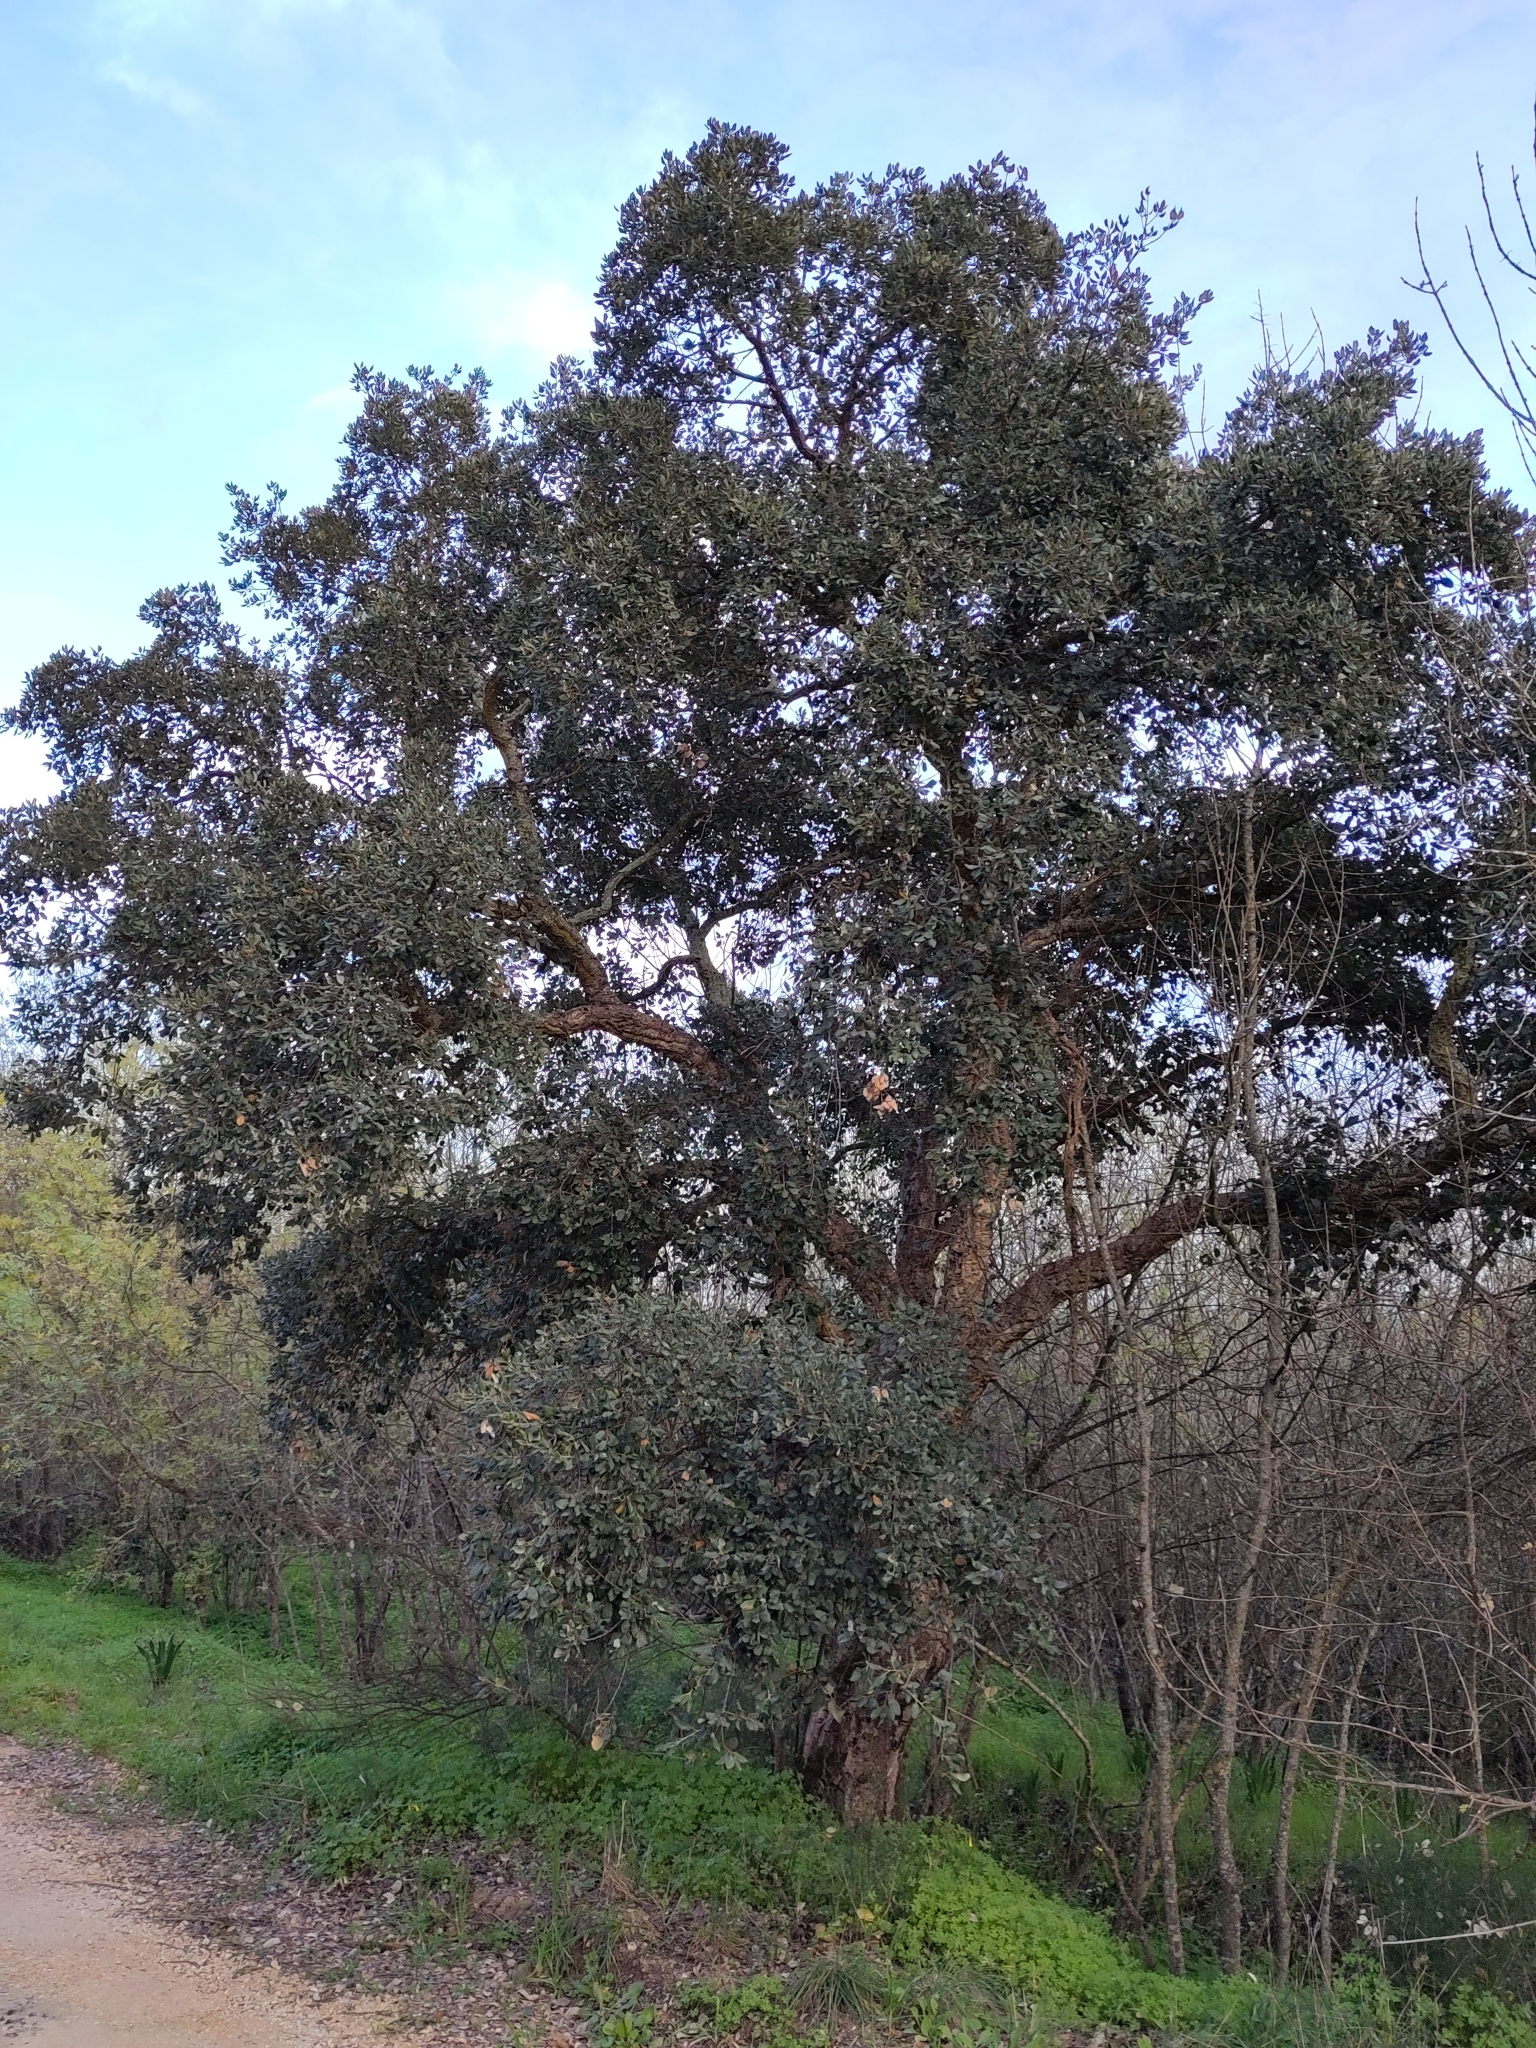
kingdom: Plantae
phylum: Tracheophyta
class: Magnoliopsida
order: Fagales
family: Fagaceae
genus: Quercus
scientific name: Quercus suber
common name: Cork oak
